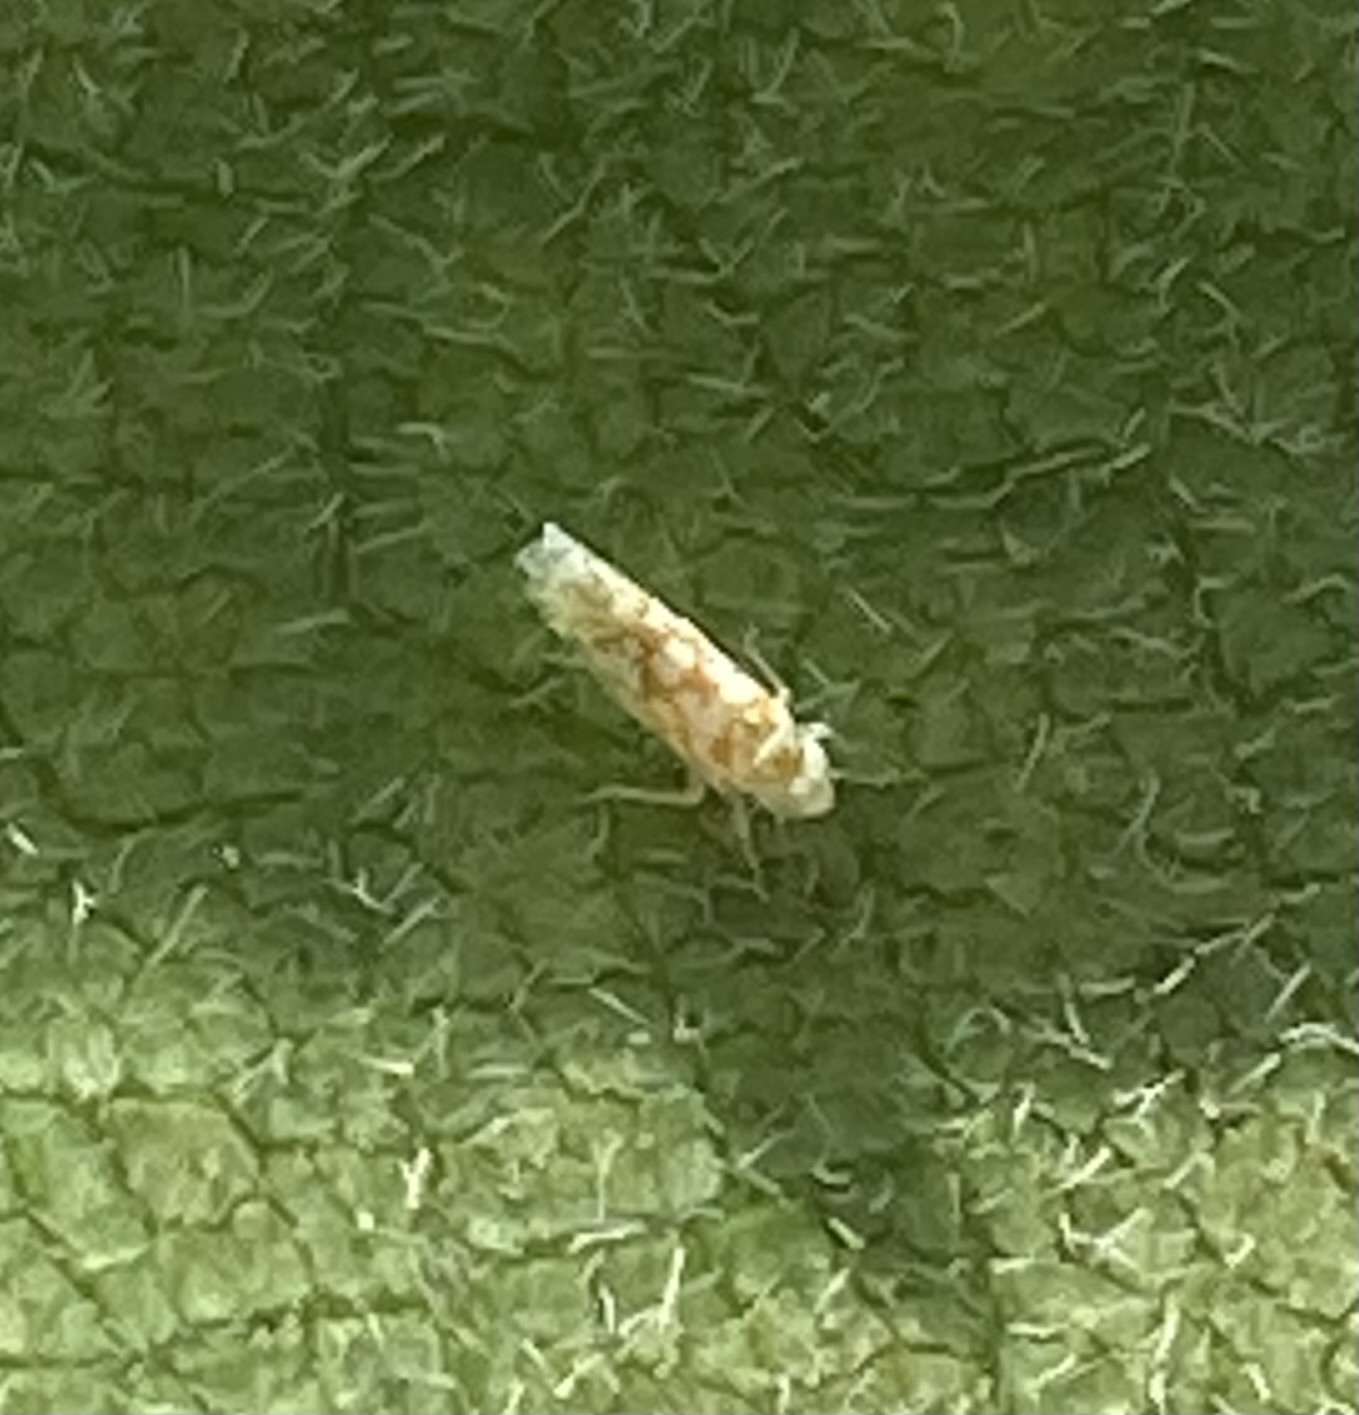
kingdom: Animalia
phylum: Arthropoda
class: Insecta
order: Hemiptera
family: Cicadellidae
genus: Protalebra
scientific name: Protalebra nexa
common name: Leafhopper
